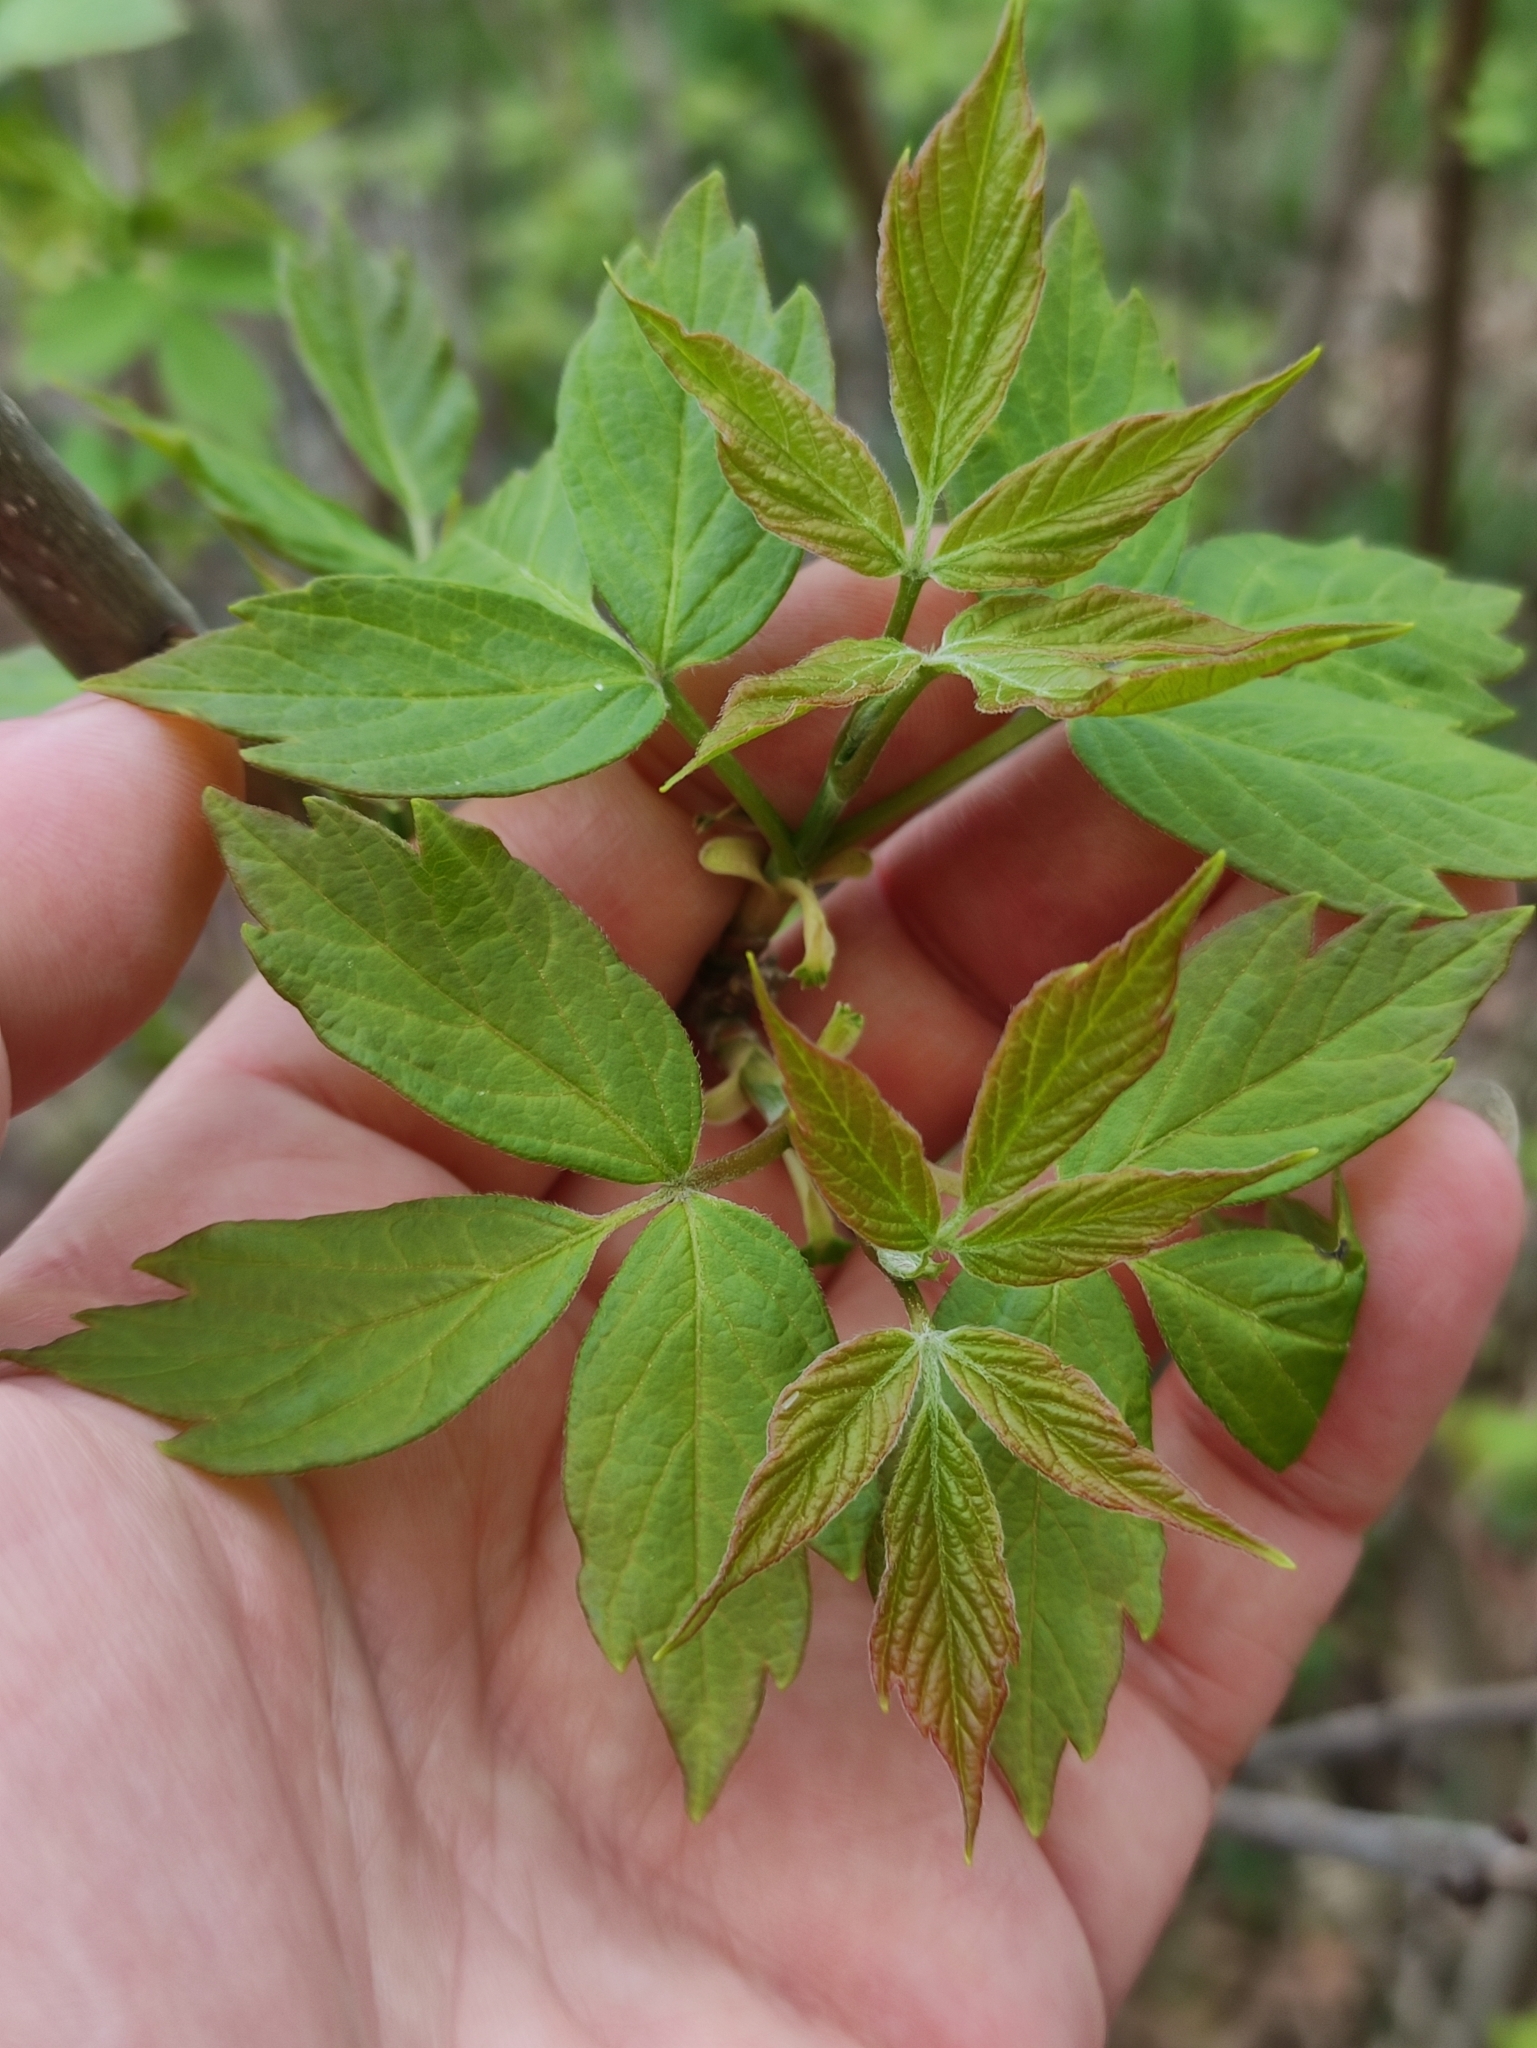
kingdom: Plantae
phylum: Tracheophyta
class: Magnoliopsida
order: Sapindales
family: Sapindaceae
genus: Acer
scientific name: Acer negundo
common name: Ashleaf maple
